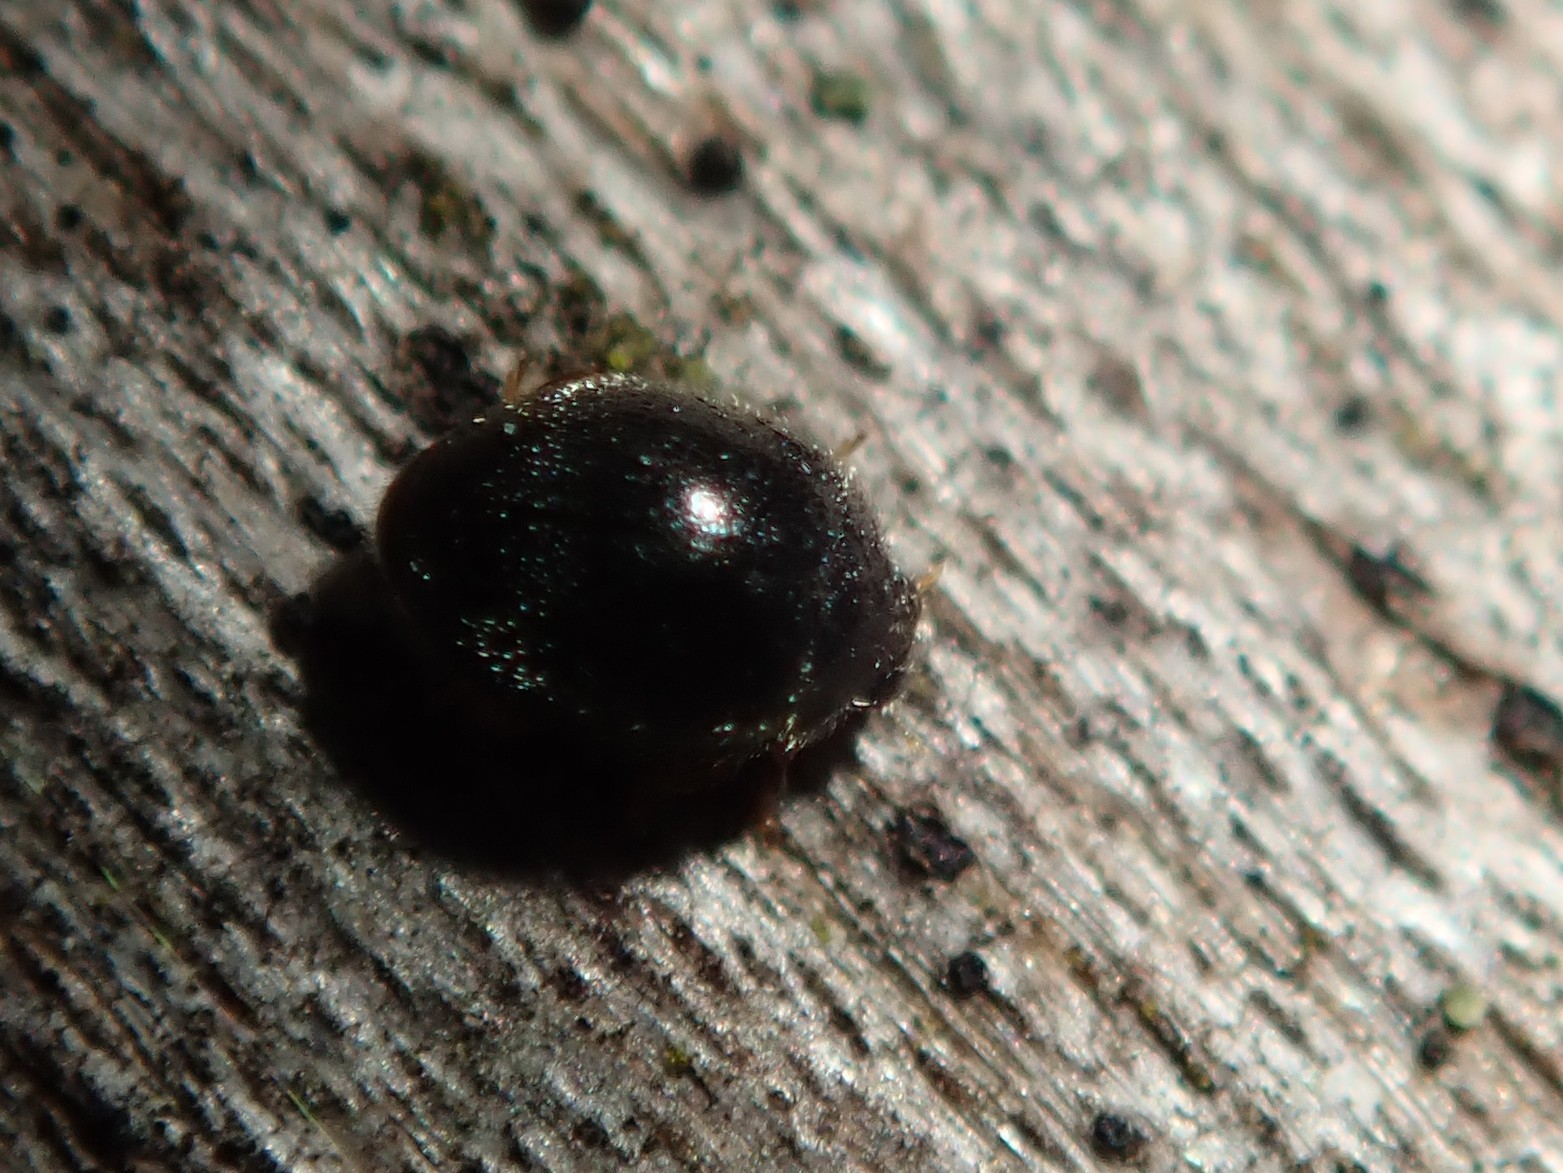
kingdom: Animalia
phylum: Arthropoda
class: Insecta
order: Coleoptera
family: Coccinellidae
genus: Stethorus
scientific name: Stethorus pusillus
